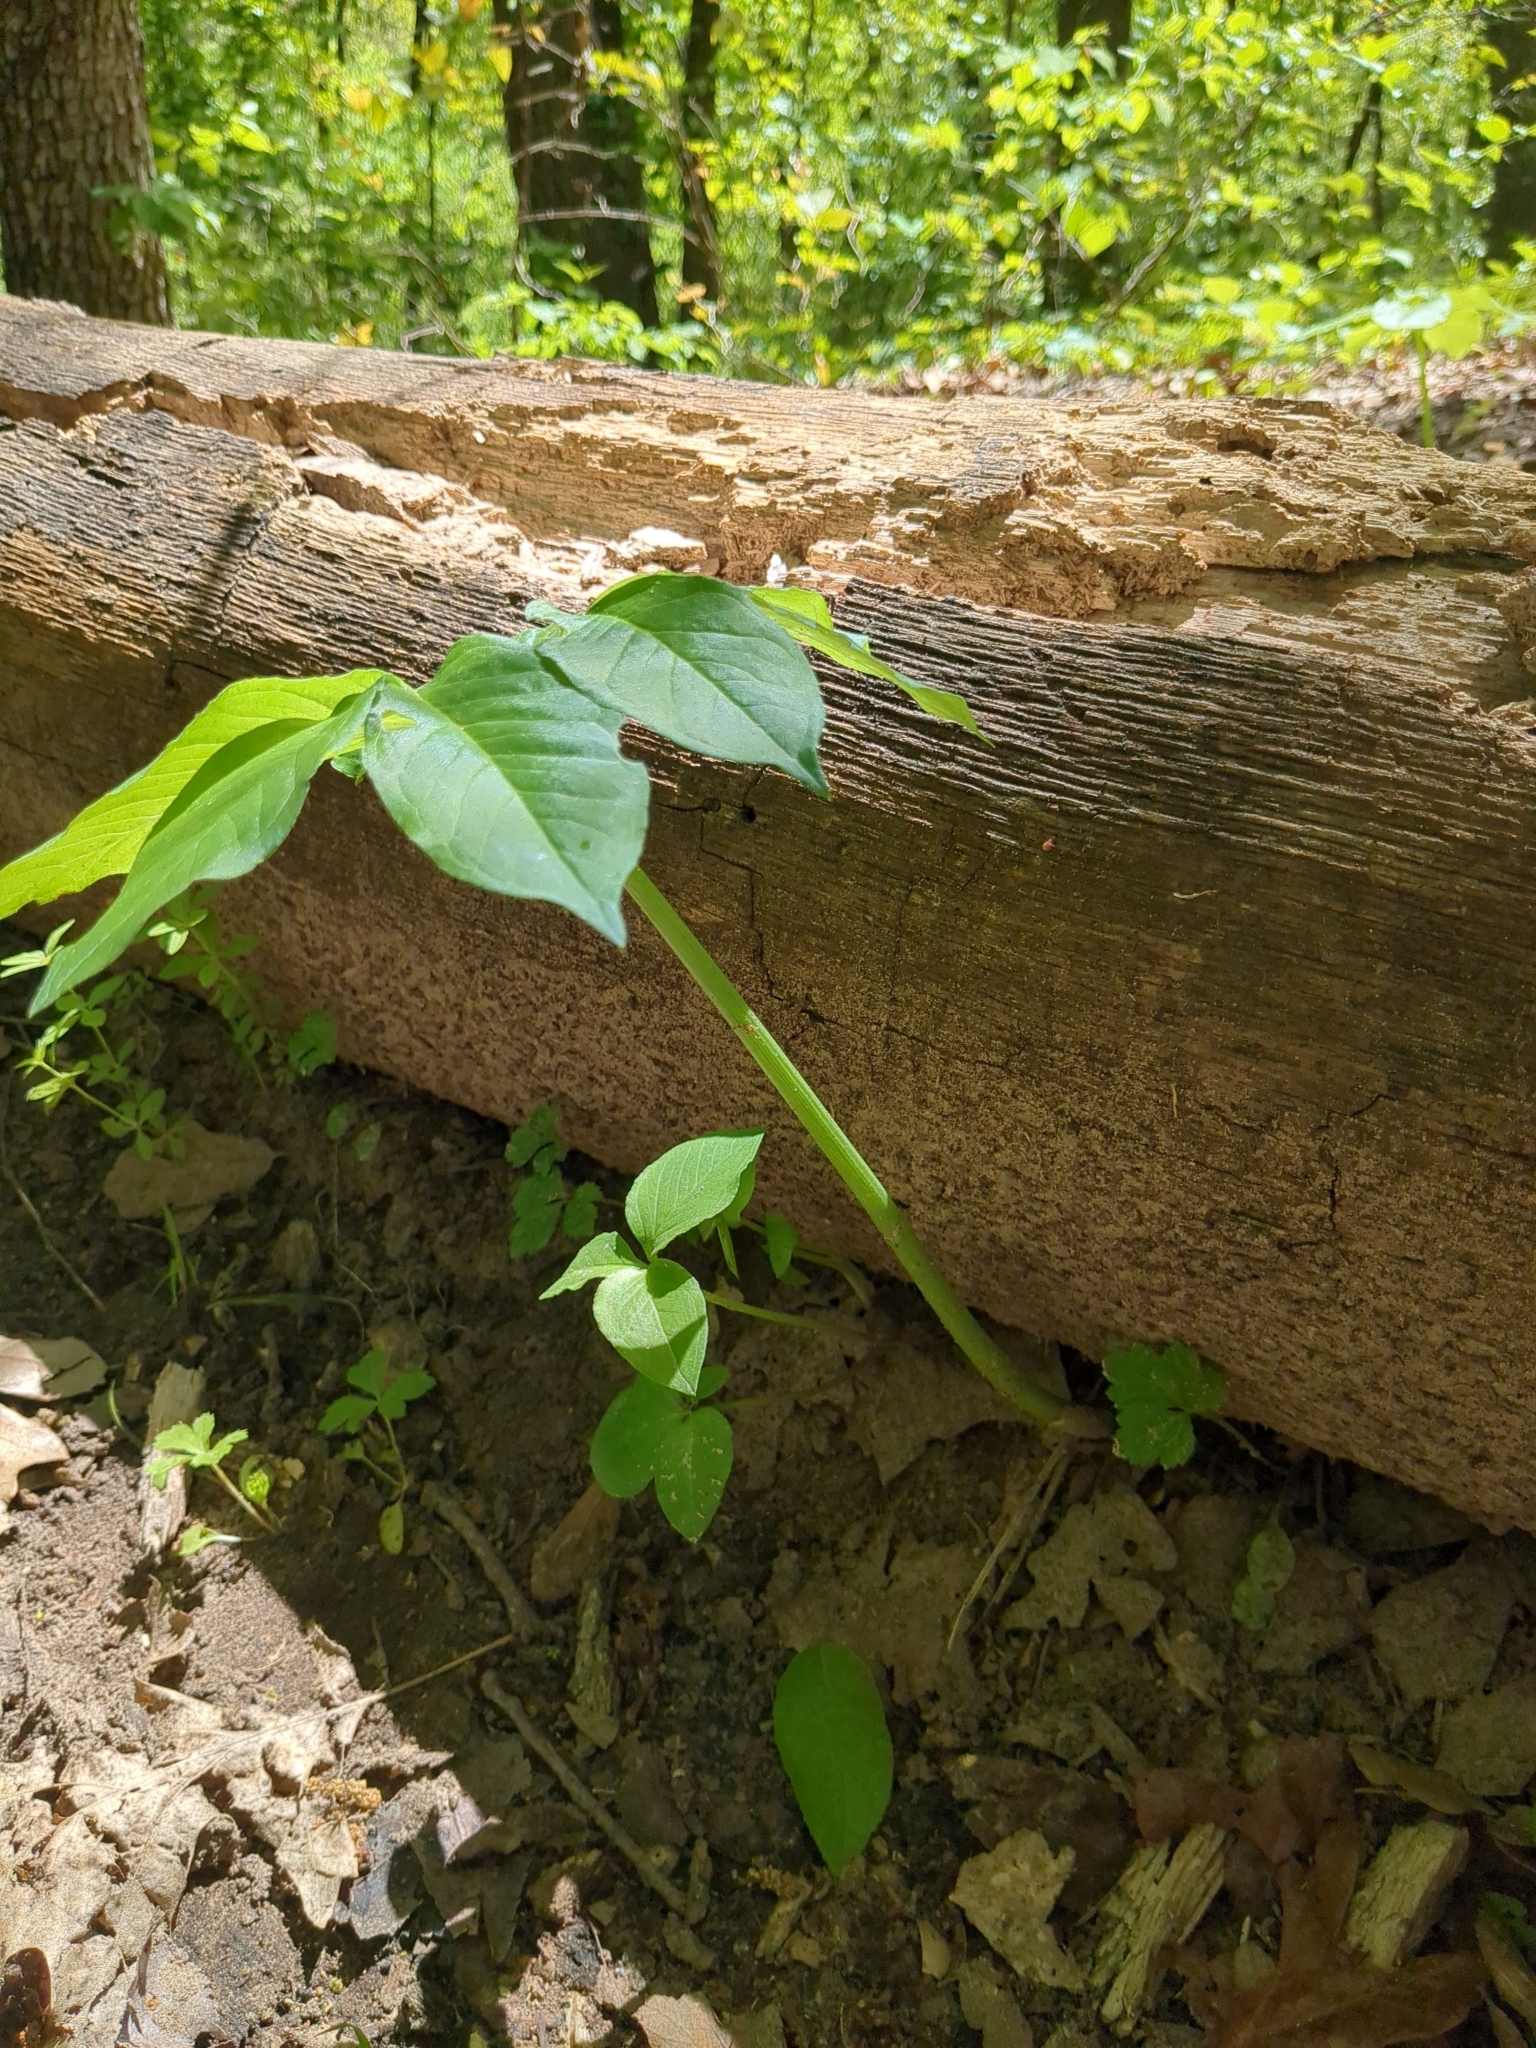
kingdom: Plantae
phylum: Tracheophyta
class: Liliopsida
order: Alismatales
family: Araceae
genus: Arisaema
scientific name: Arisaema dracontium
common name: Dragon-arum
